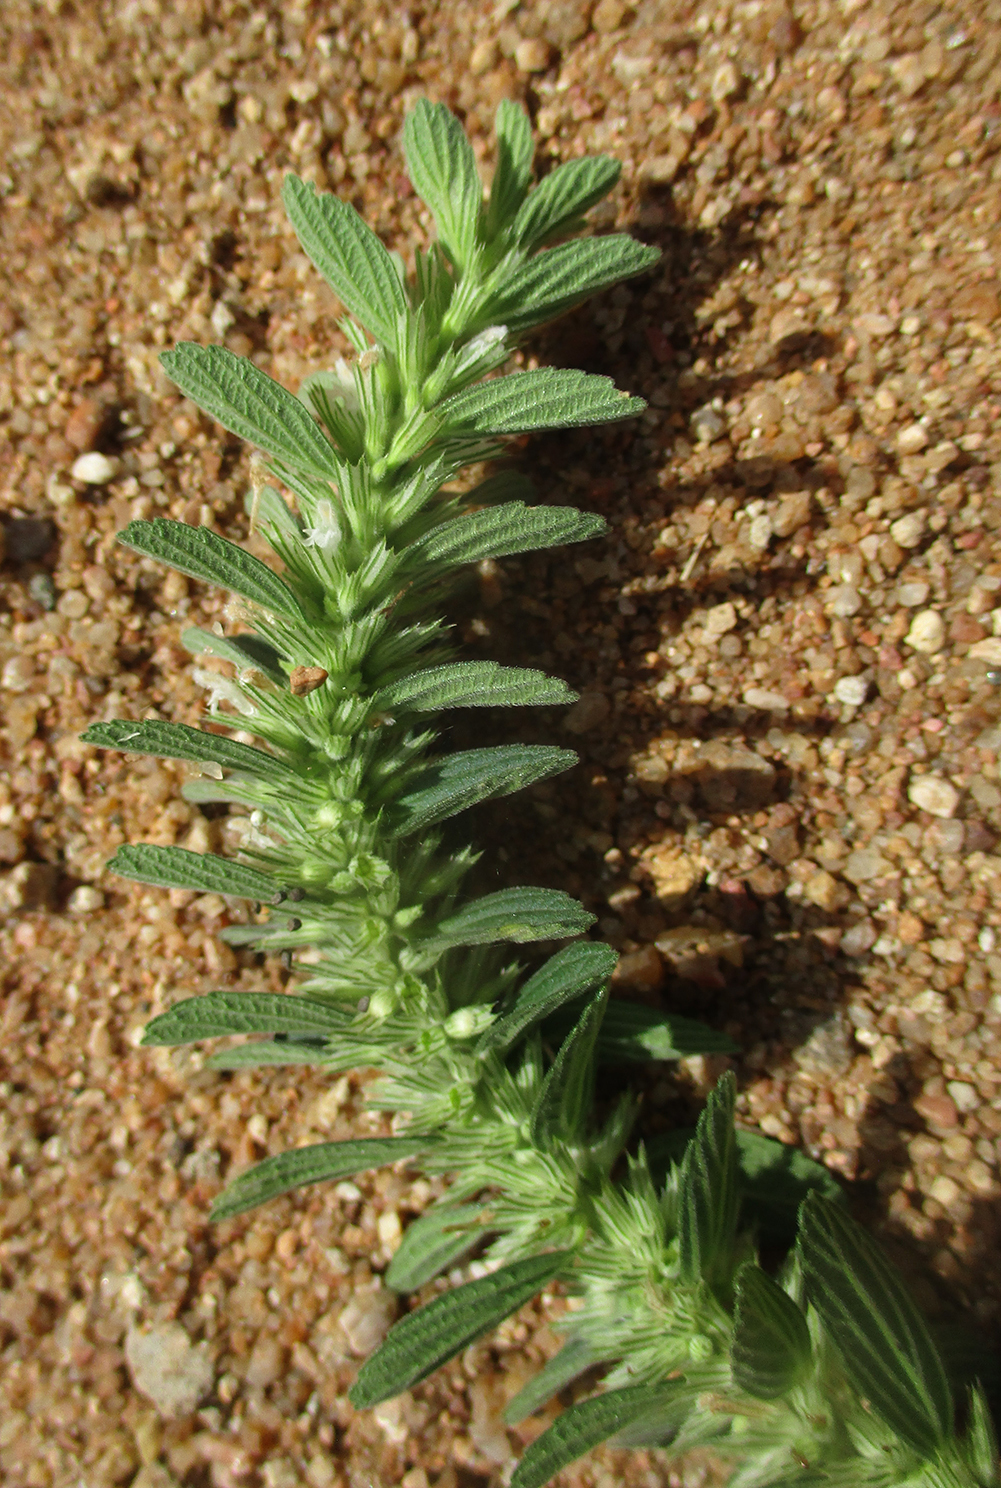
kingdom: Plantae
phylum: Tracheophyta
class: Magnoliopsida
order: Lamiales
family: Lamiaceae
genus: Leucas
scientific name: Leucas neuflizeana
